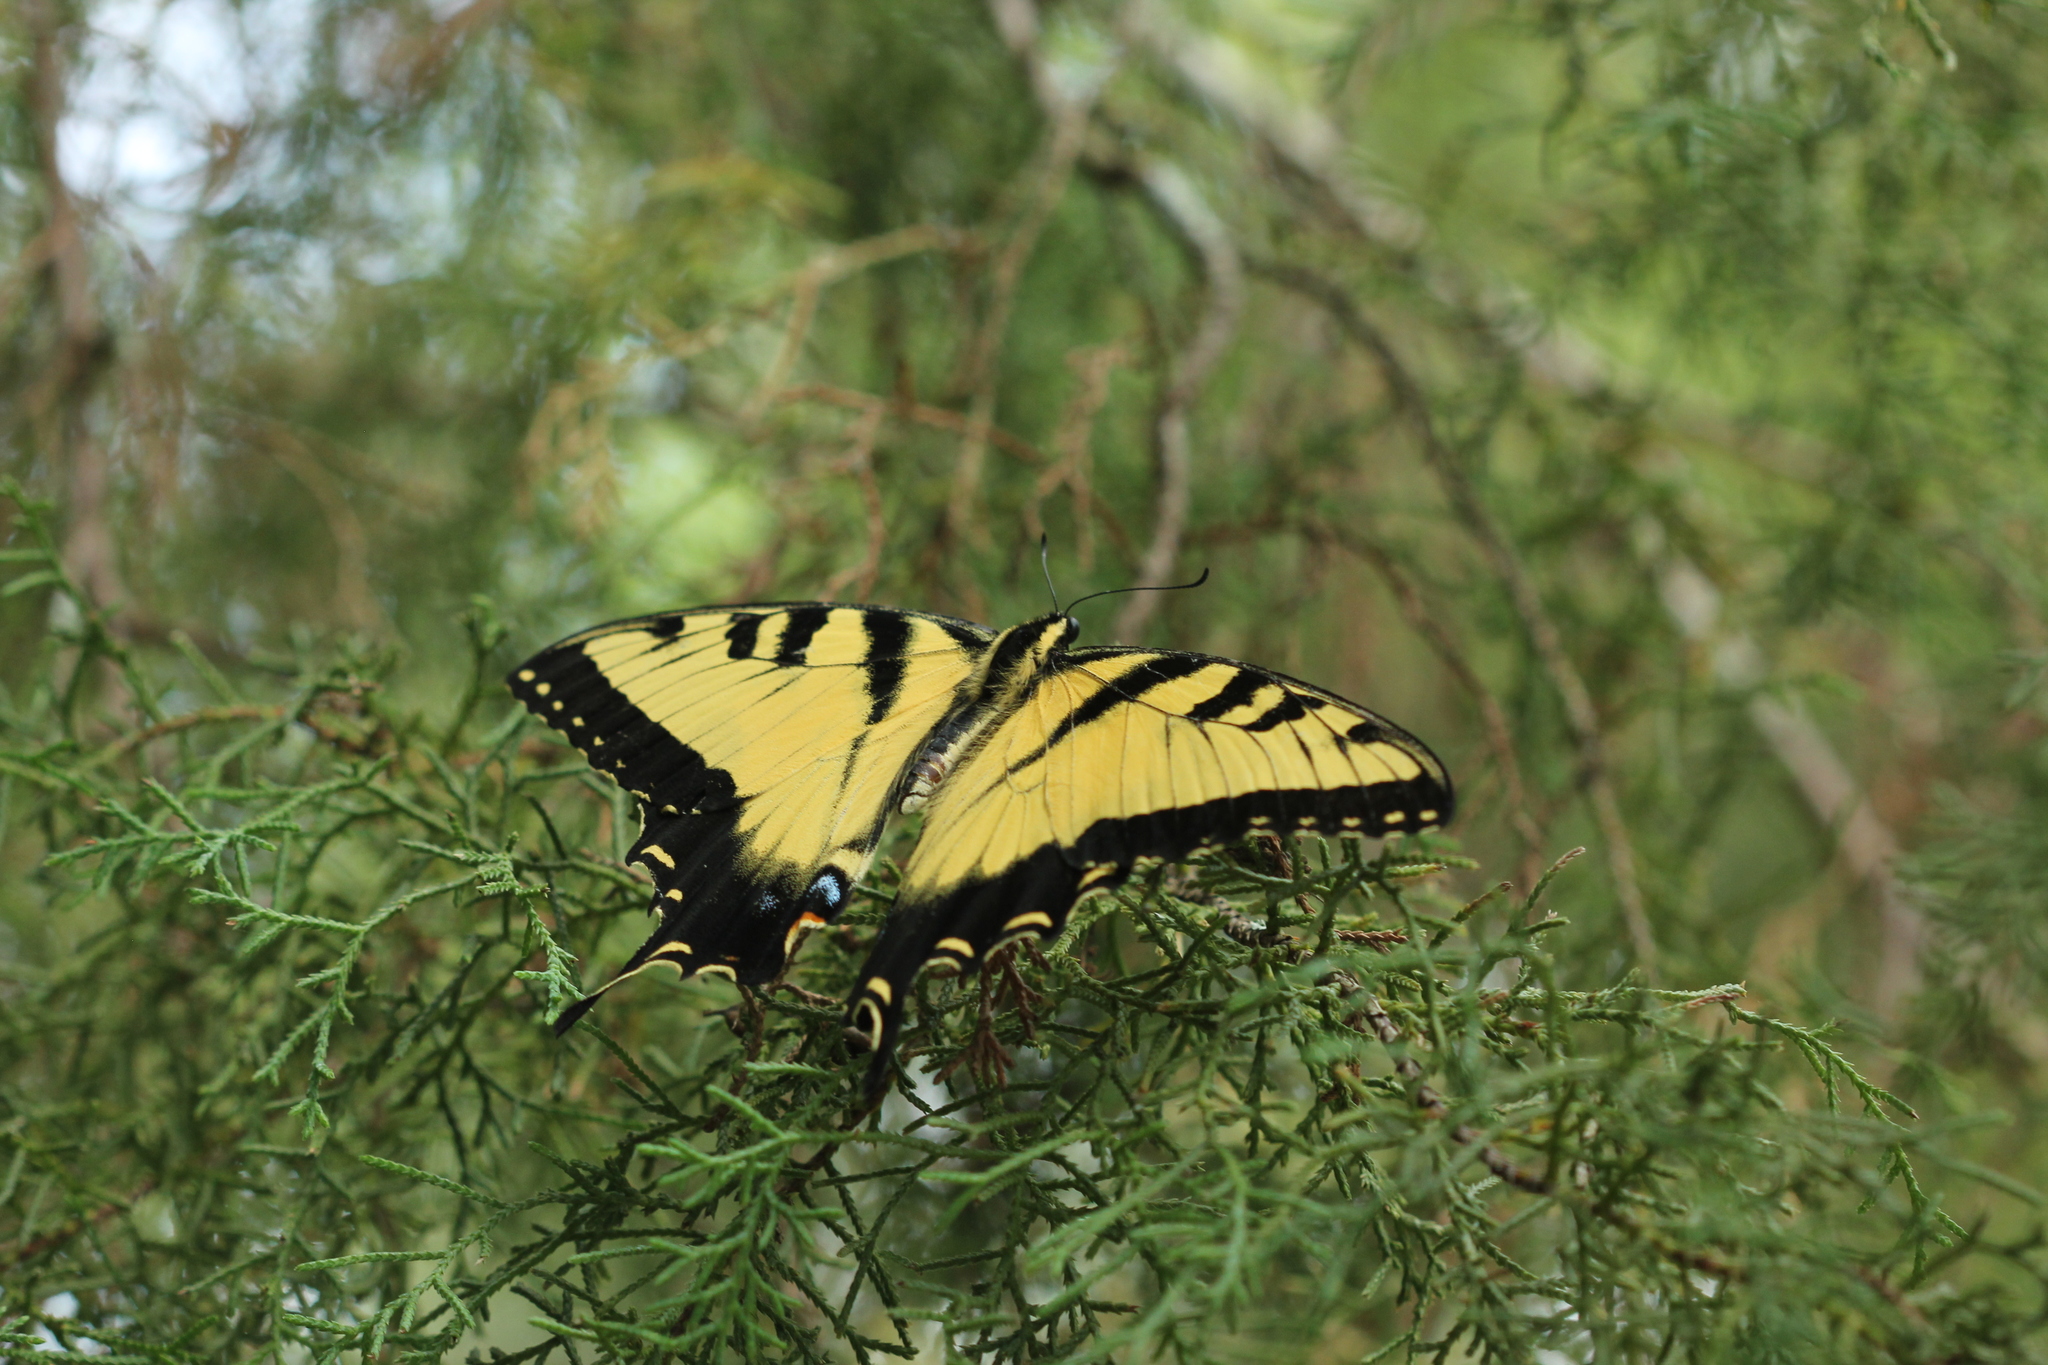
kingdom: Animalia
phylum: Arthropoda
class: Insecta
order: Lepidoptera
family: Papilionidae
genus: Papilio
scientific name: Papilio glaucus
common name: Tiger swallowtail
